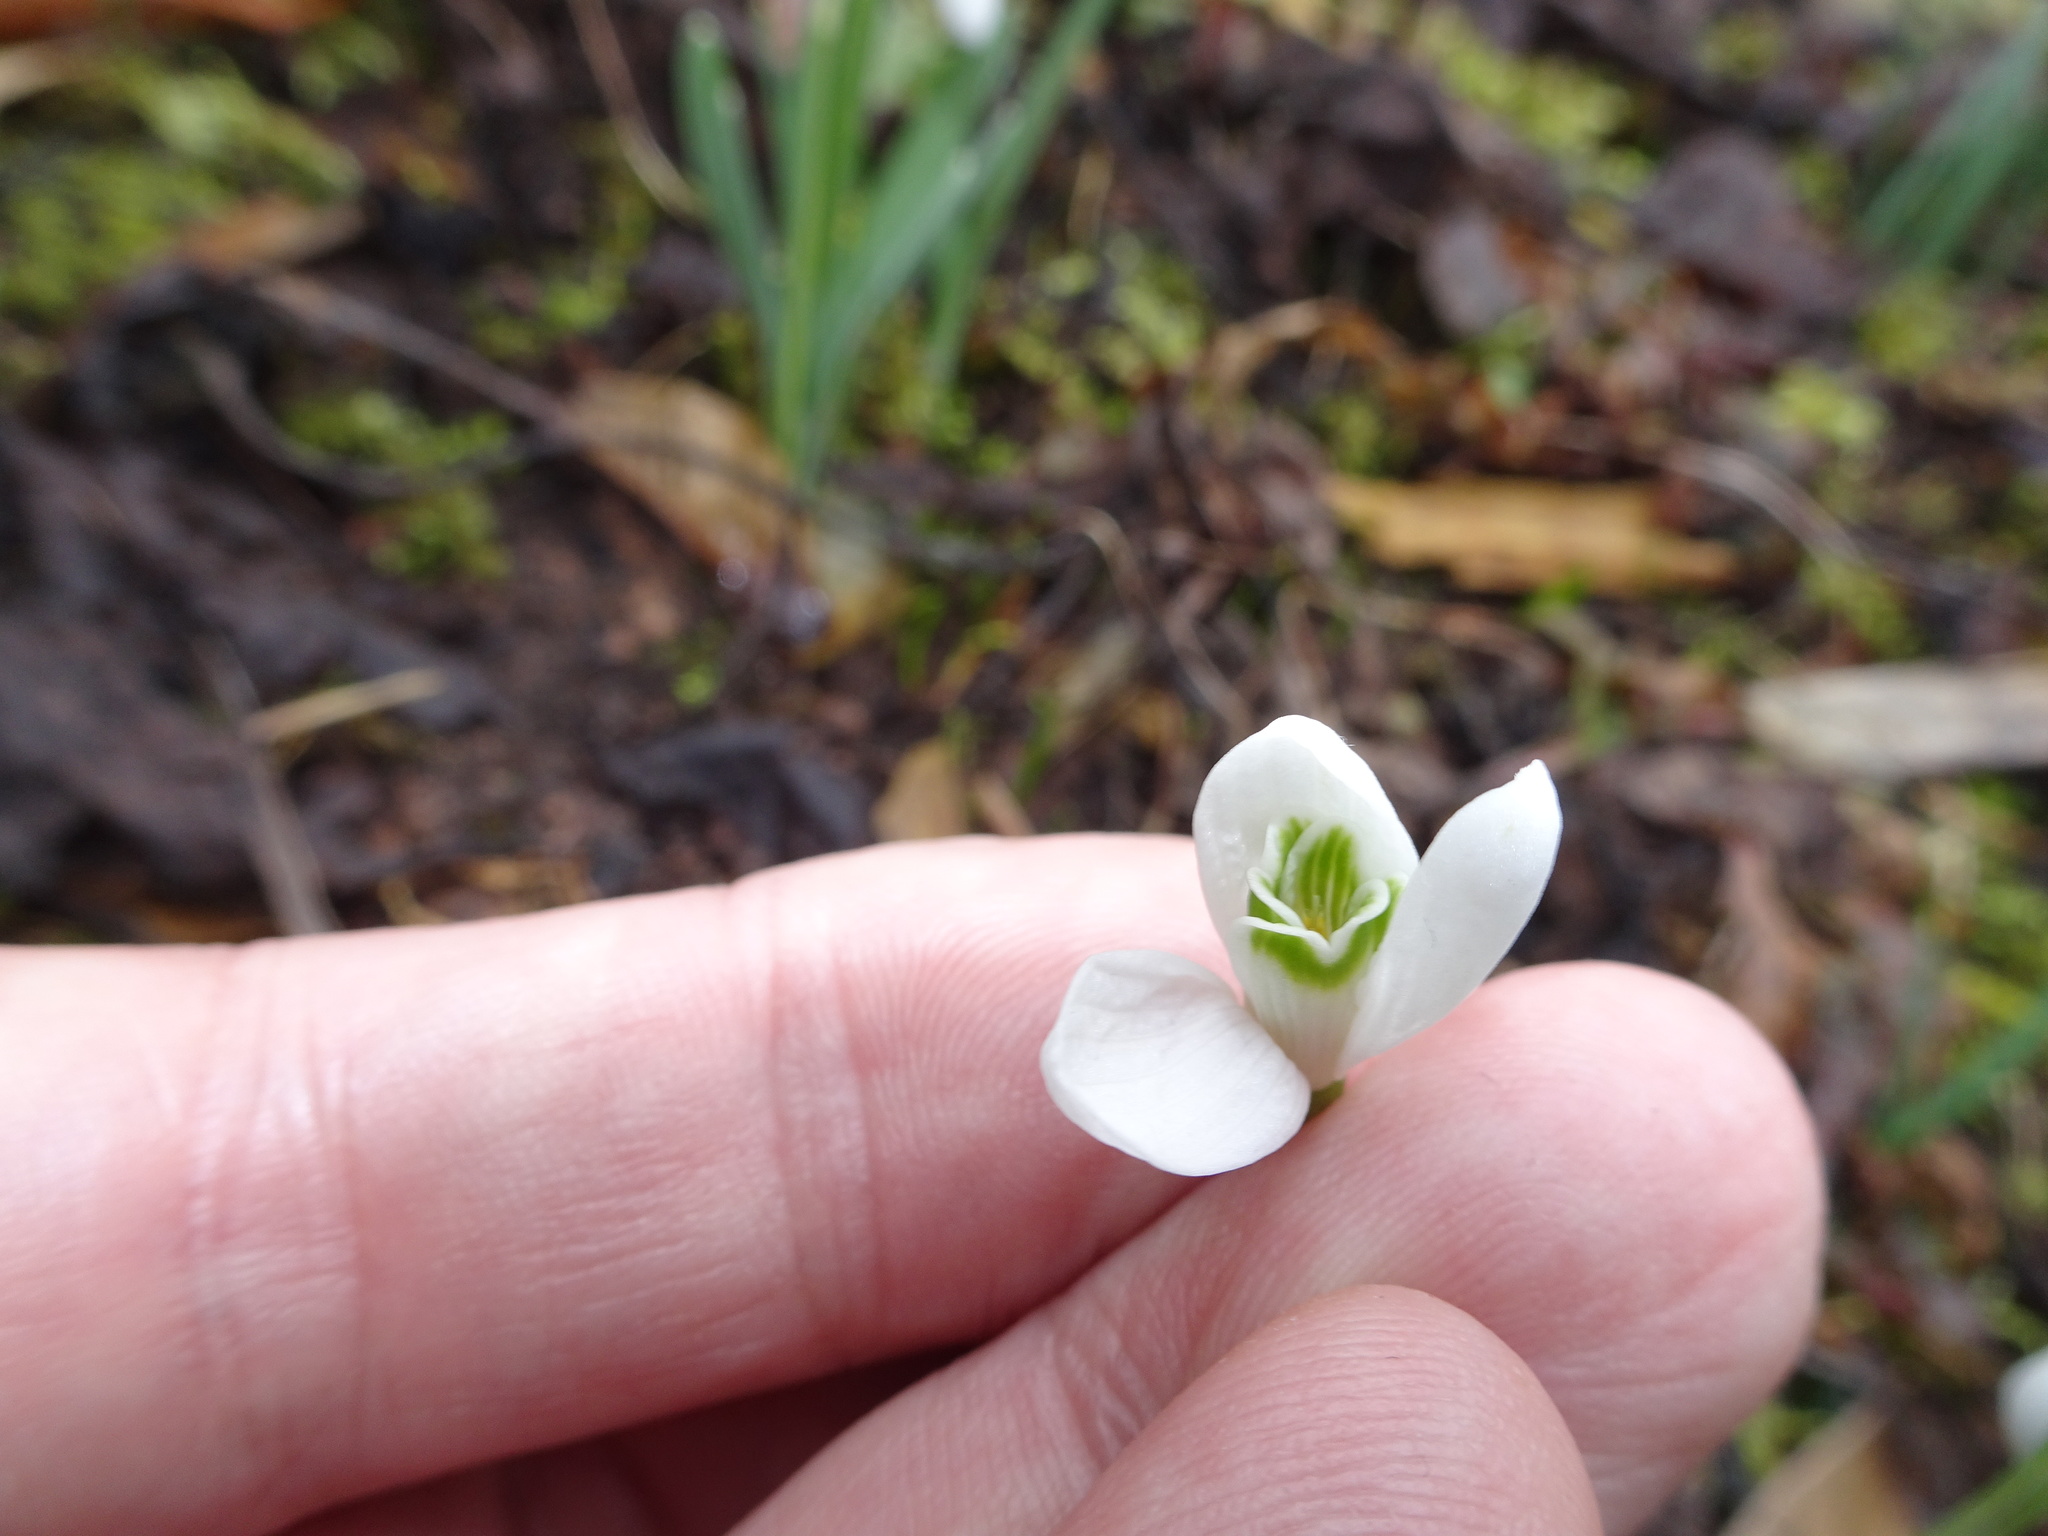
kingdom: Plantae
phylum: Tracheophyta
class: Liliopsida
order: Asparagales
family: Amaryllidaceae
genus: Galanthus
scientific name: Galanthus nivalis
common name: Snowdrop
